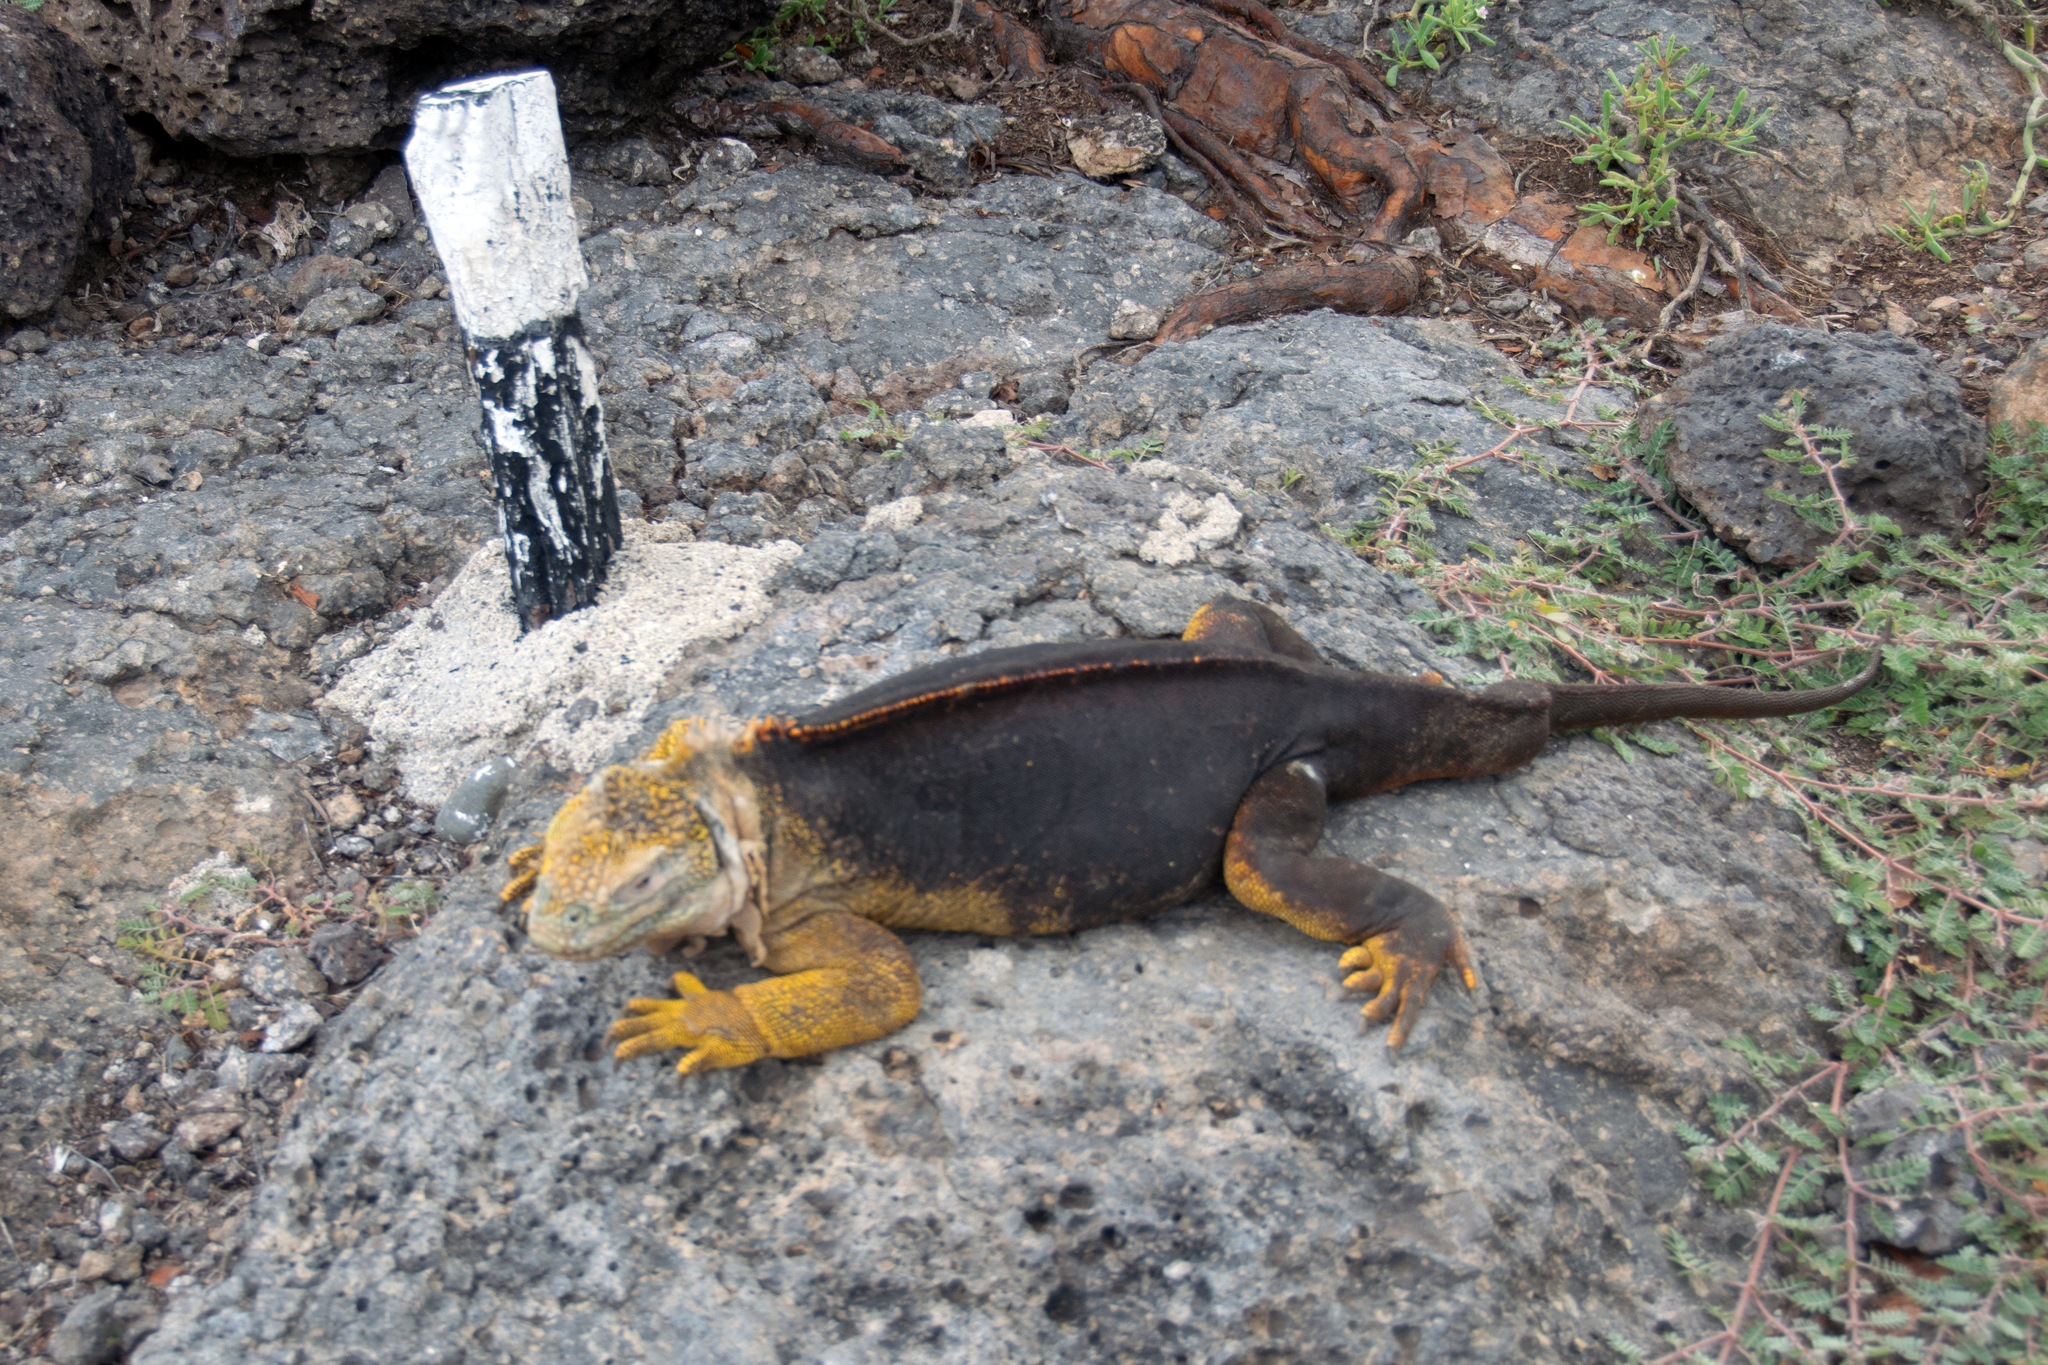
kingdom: Animalia
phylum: Chordata
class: Squamata
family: Iguanidae
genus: Conolophus
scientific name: Conolophus subcristatus
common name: Galapagos land iguana
